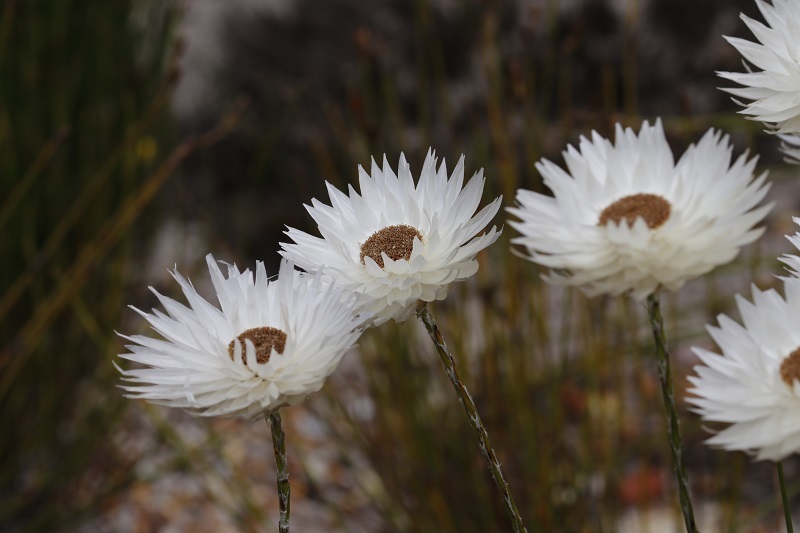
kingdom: Plantae
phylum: Tracheophyta
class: Magnoliopsida
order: Asterales
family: Asteraceae
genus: Edmondia
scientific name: Edmondia sesamoides
